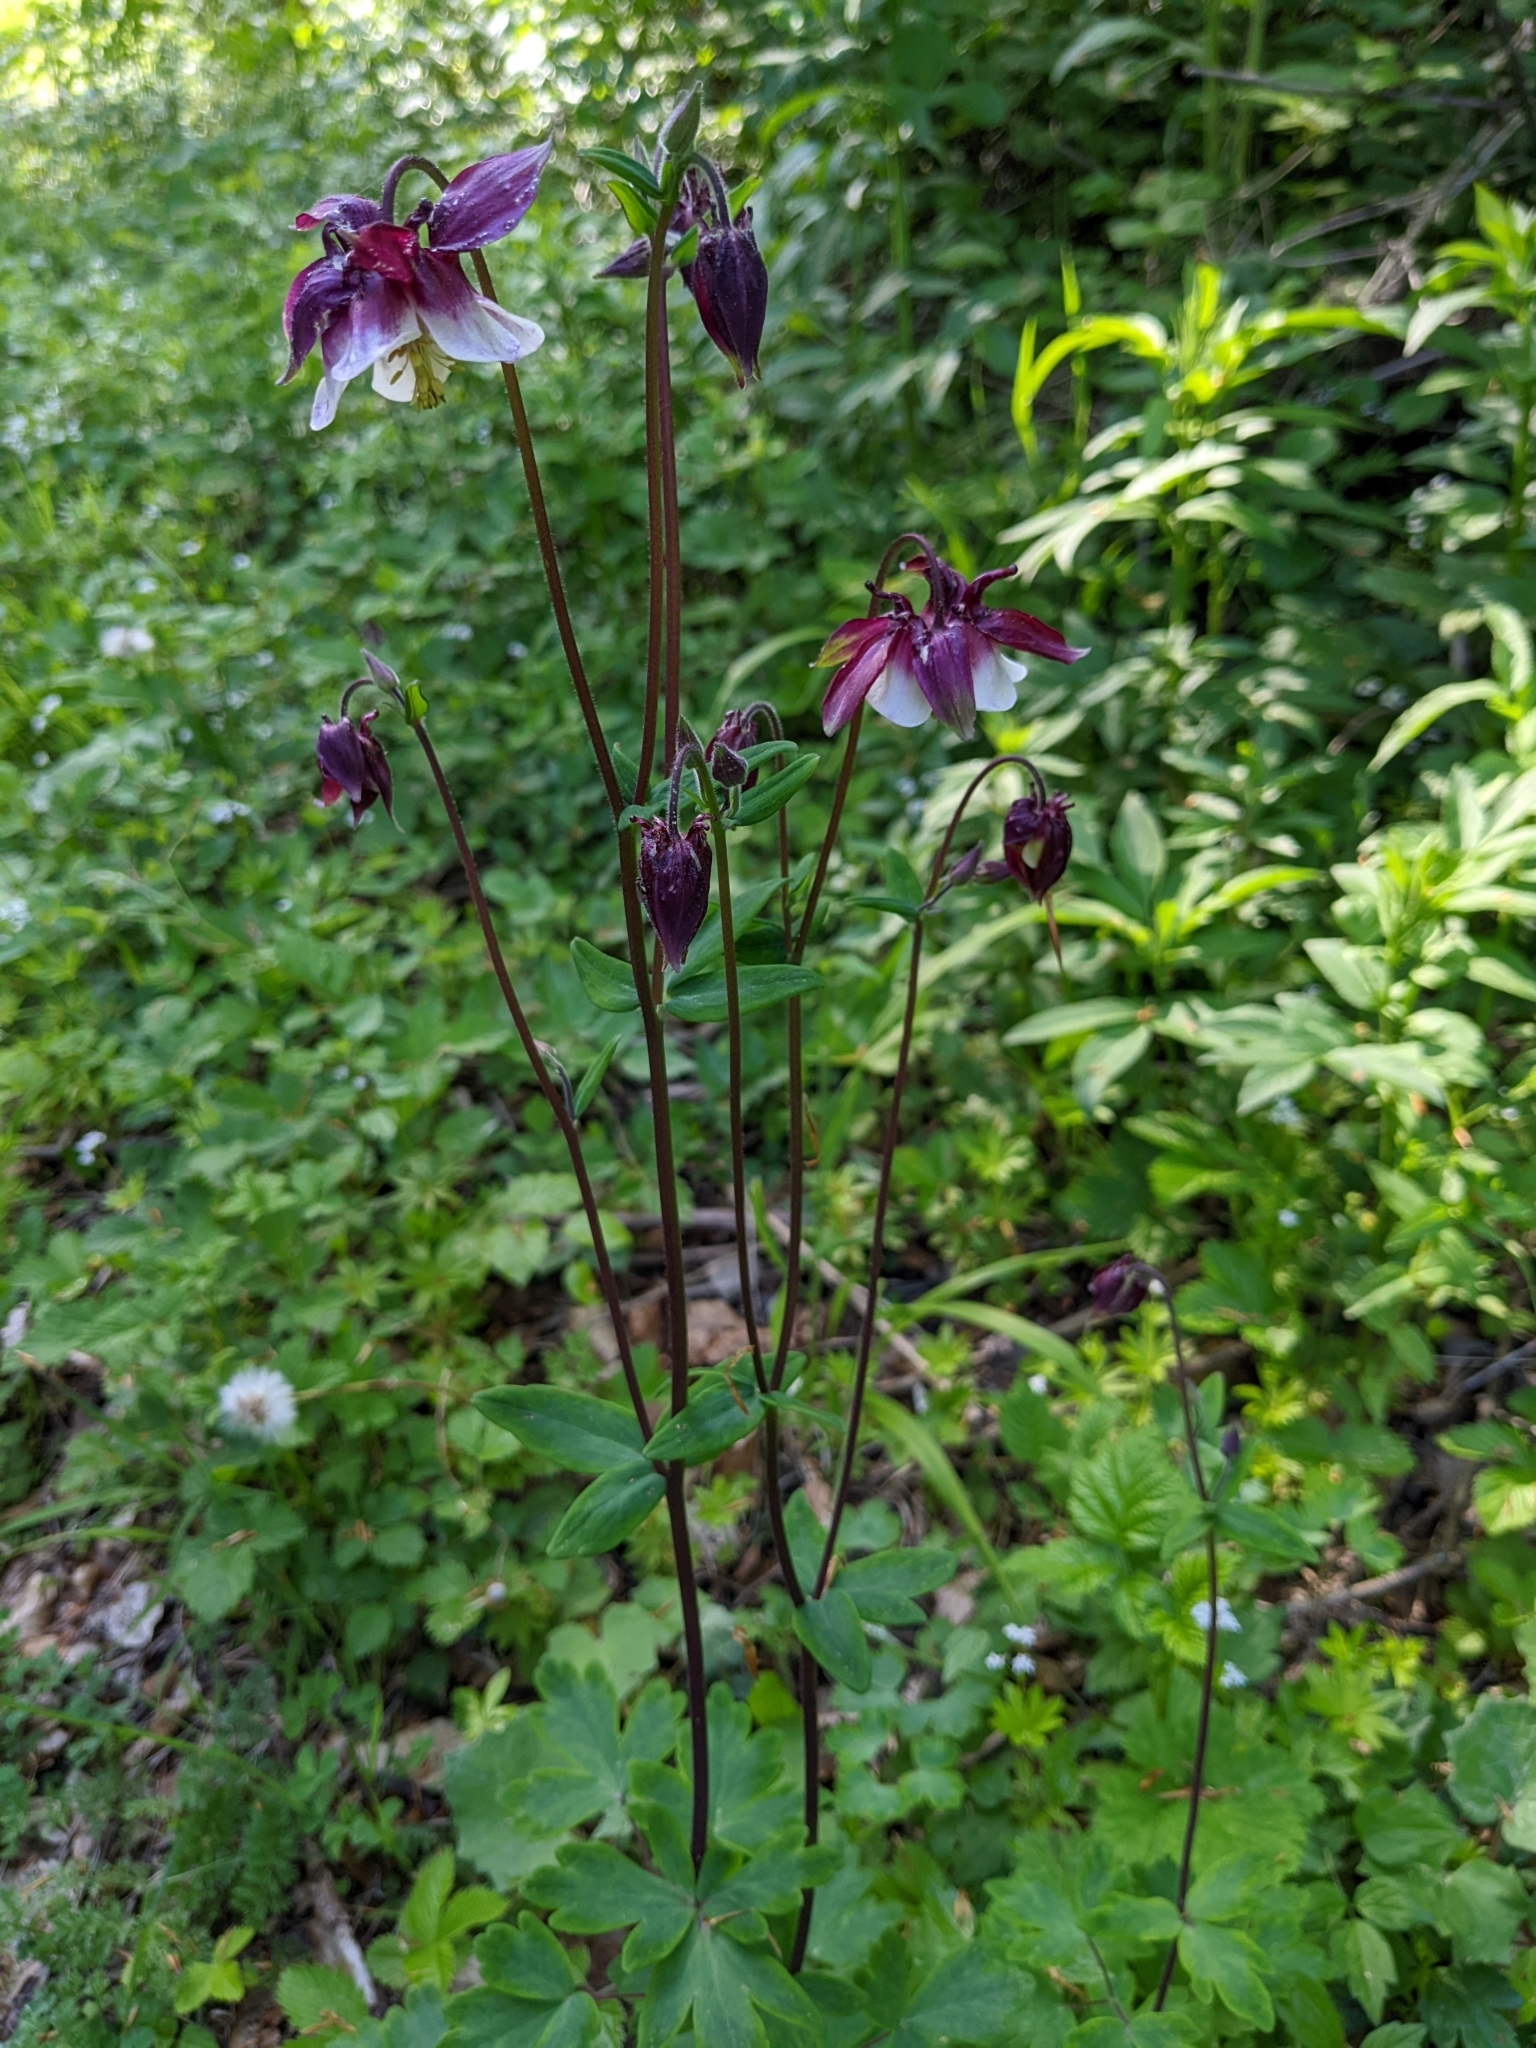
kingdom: Plantae
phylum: Tracheophyta
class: Magnoliopsida
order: Ranunculales
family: Ranunculaceae
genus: Aquilegia
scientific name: Aquilegia atrata
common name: Dark columbine
